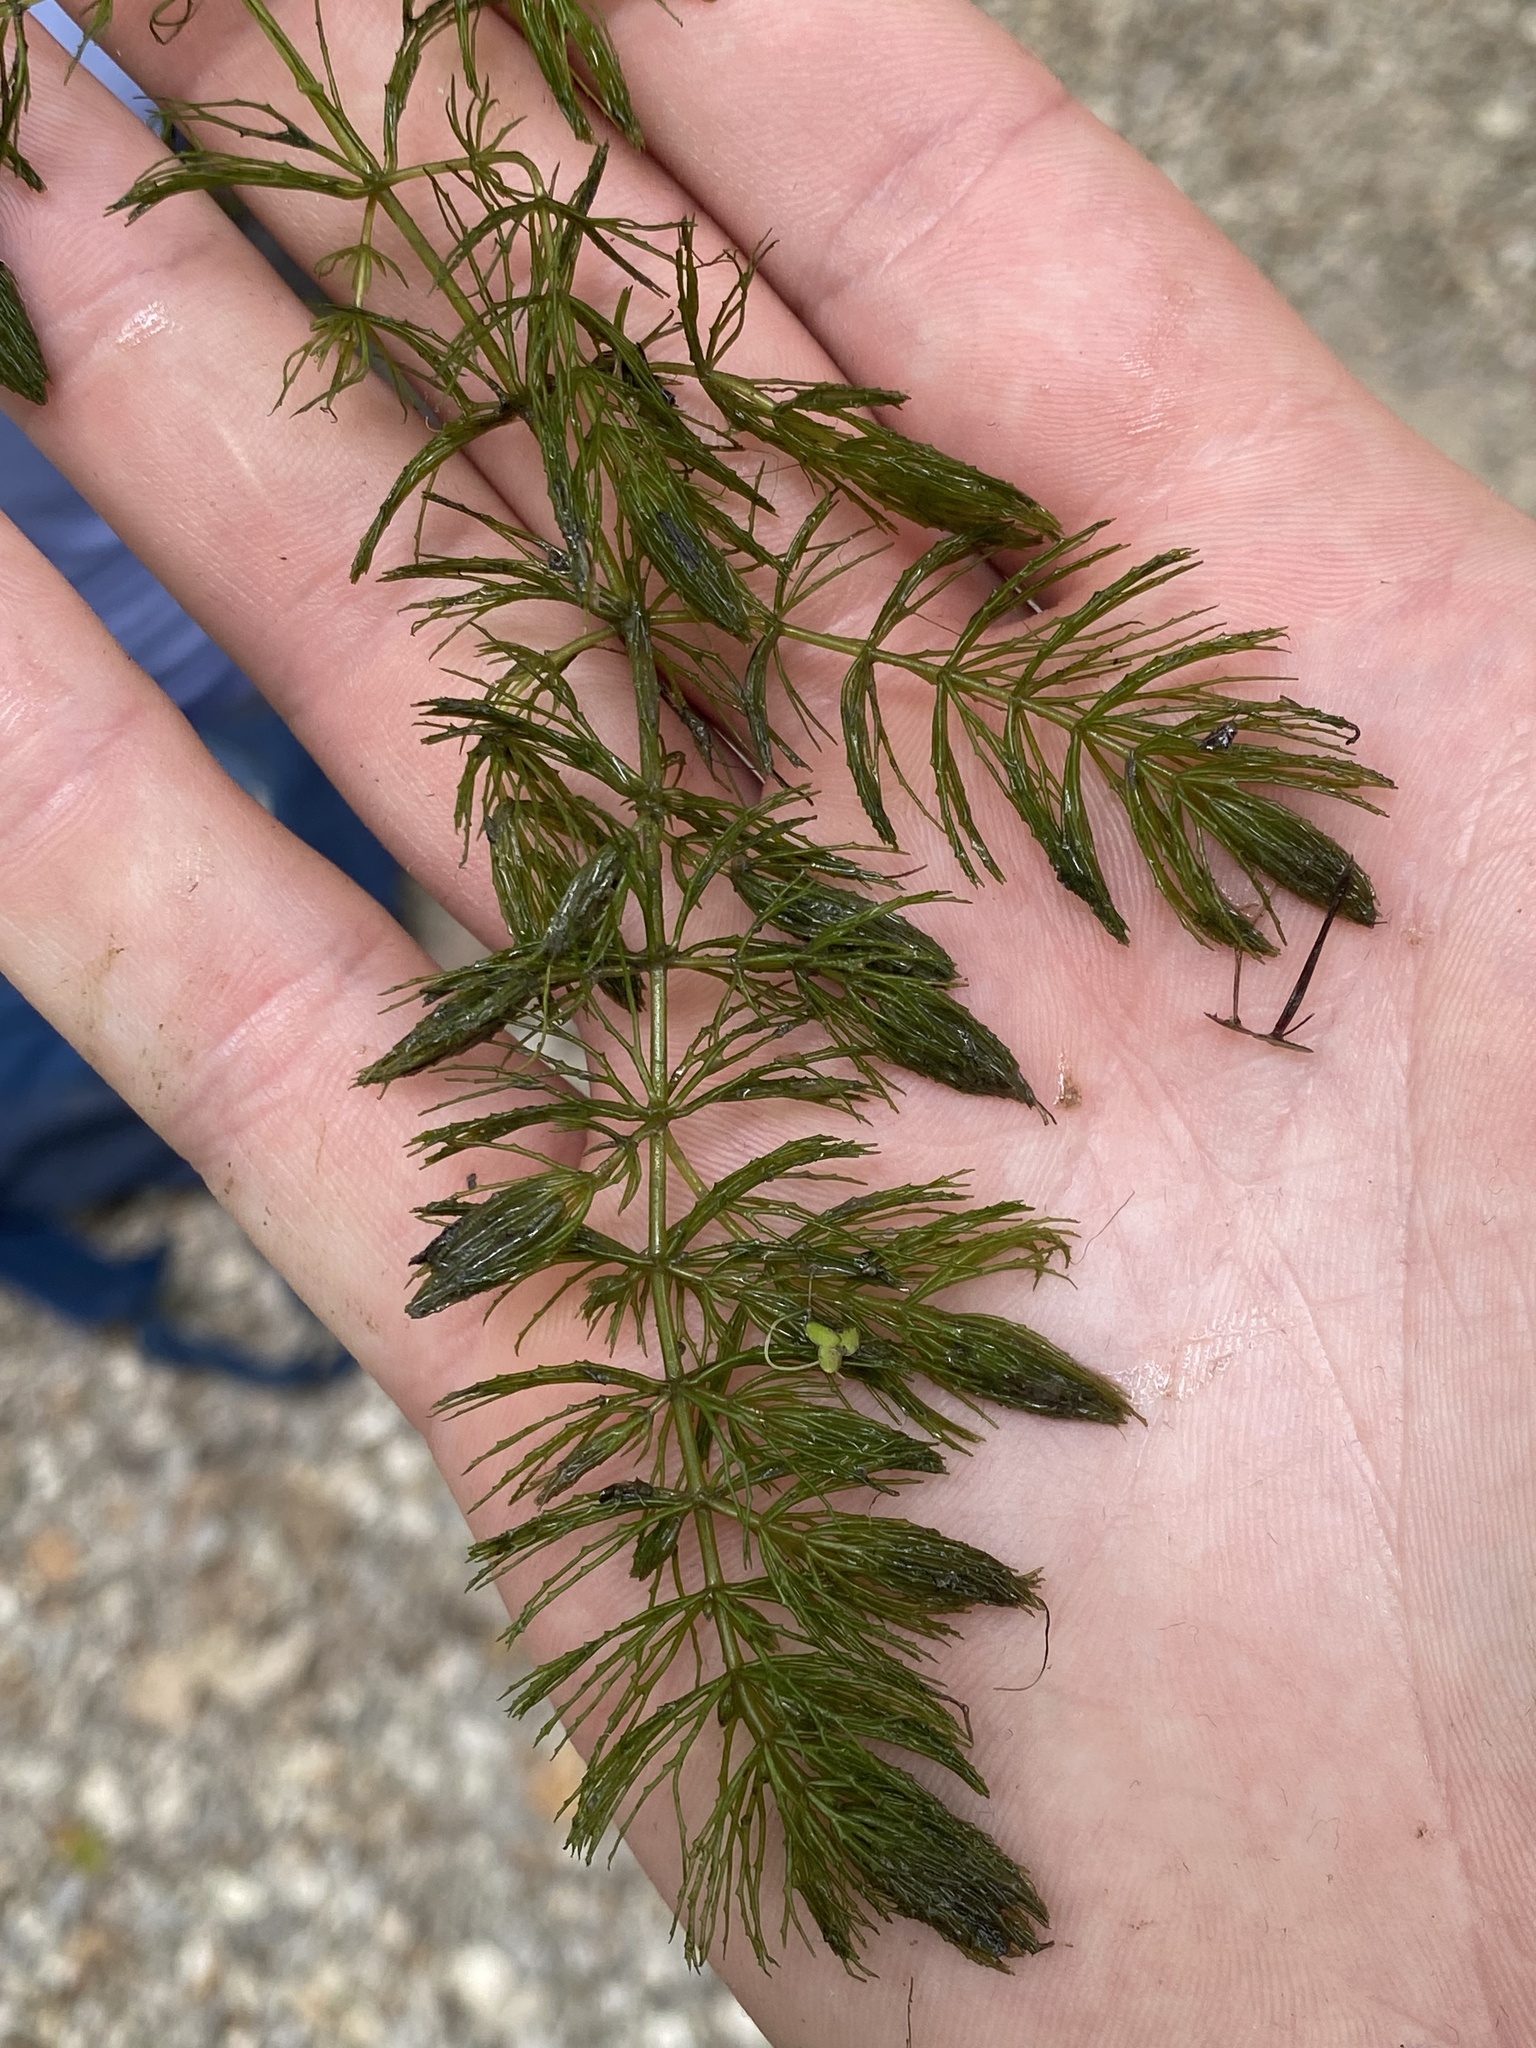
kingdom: Plantae
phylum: Tracheophyta
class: Magnoliopsida
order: Ceratophyllales
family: Ceratophyllaceae
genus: Ceratophyllum
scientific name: Ceratophyllum echinatum
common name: Prickly coontail
